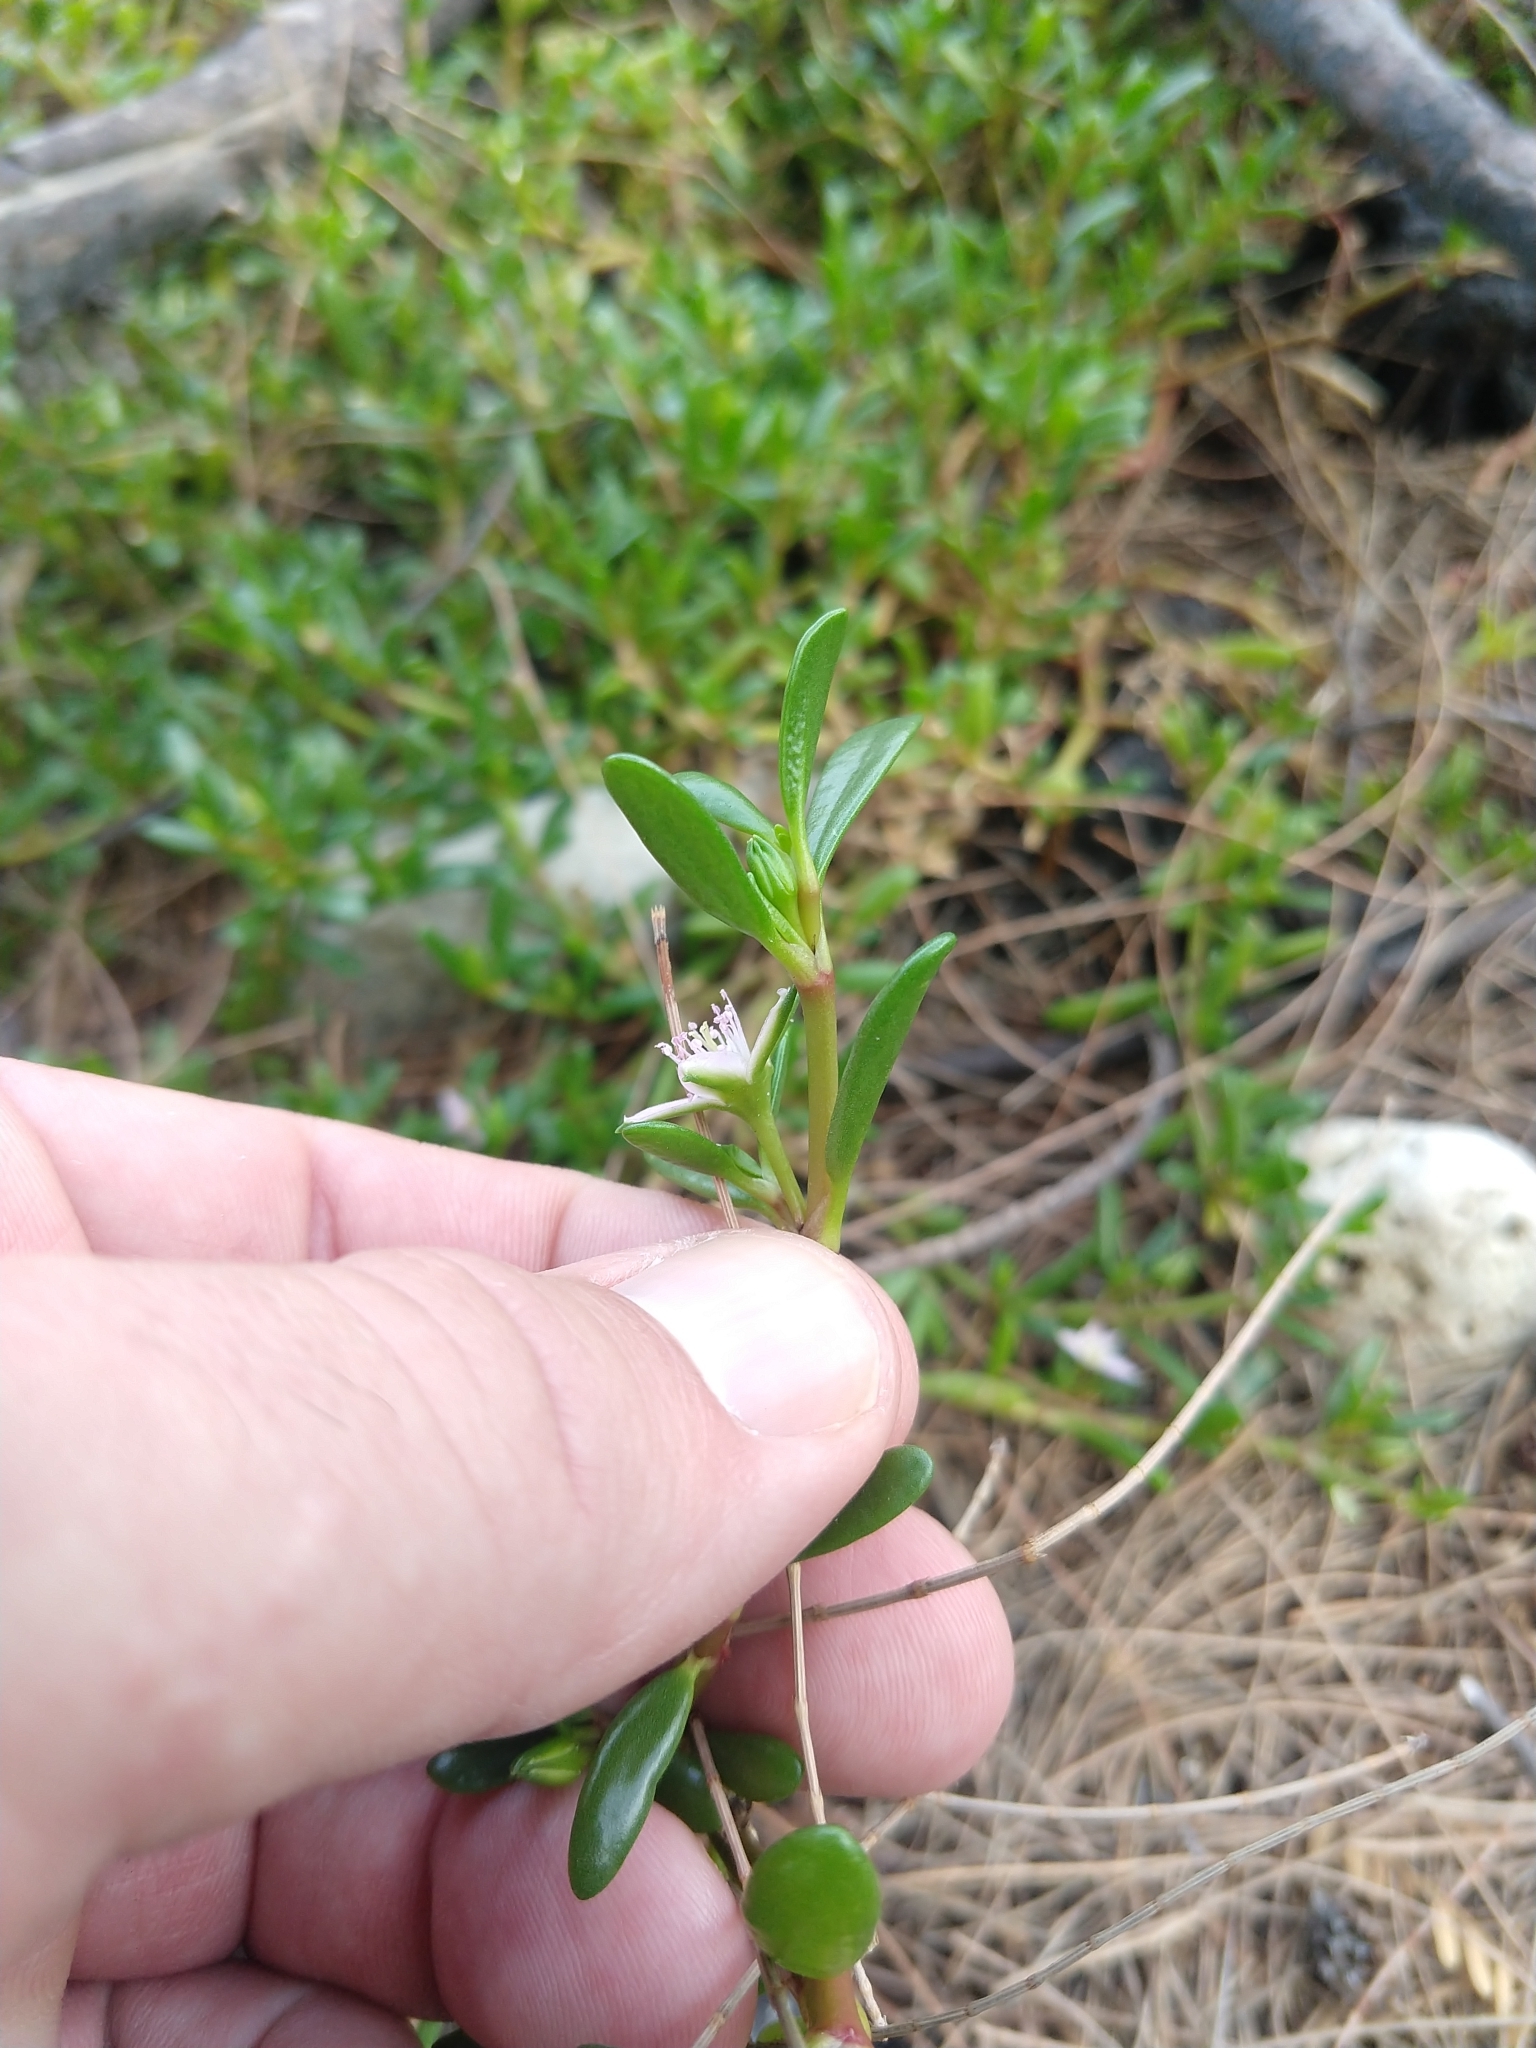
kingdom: Plantae
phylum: Tracheophyta
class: Magnoliopsida
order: Caryophyllales
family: Aizoaceae
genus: Sesuvium
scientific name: Sesuvium portulacastrum
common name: Sea-purslane
